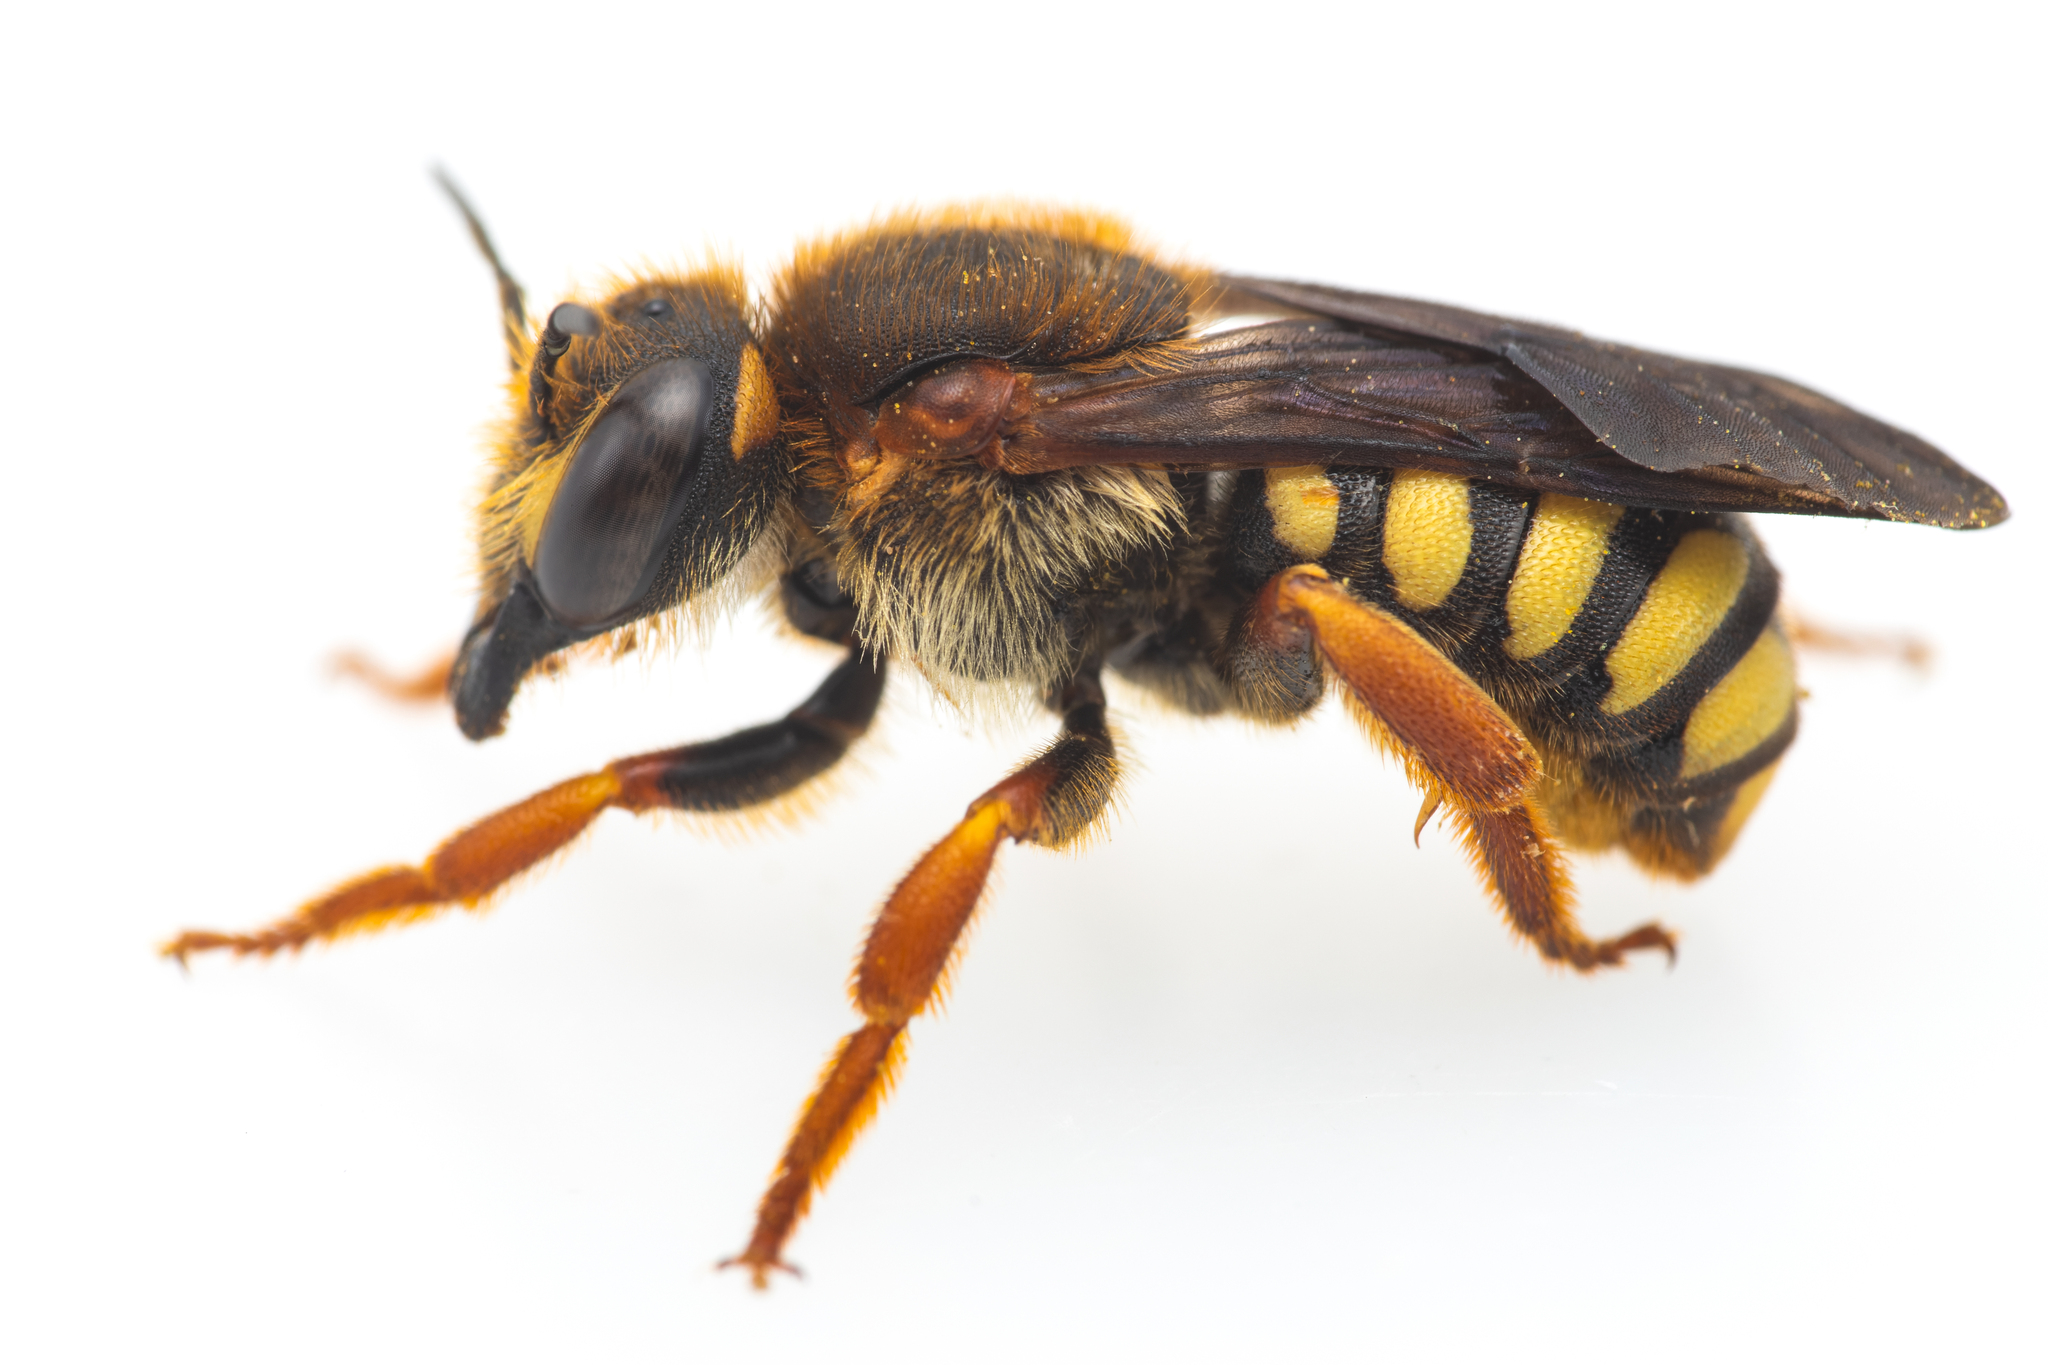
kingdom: Animalia
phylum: Arthropoda
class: Insecta
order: Hymenoptera
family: Megachilidae
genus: Rhodanthidium
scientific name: Rhodanthidium septemdentatum
